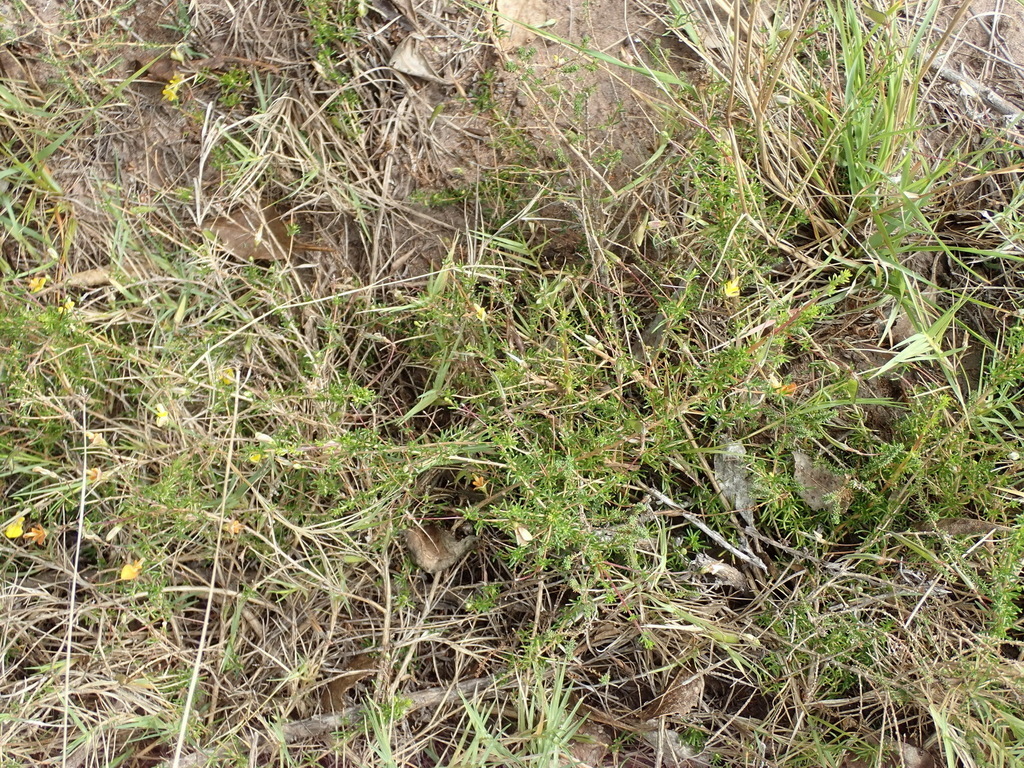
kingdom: Plantae
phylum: Tracheophyta
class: Magnoliopsida
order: Fabales
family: Fabaceae
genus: Aspalathus
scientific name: Aspalathus biflora
